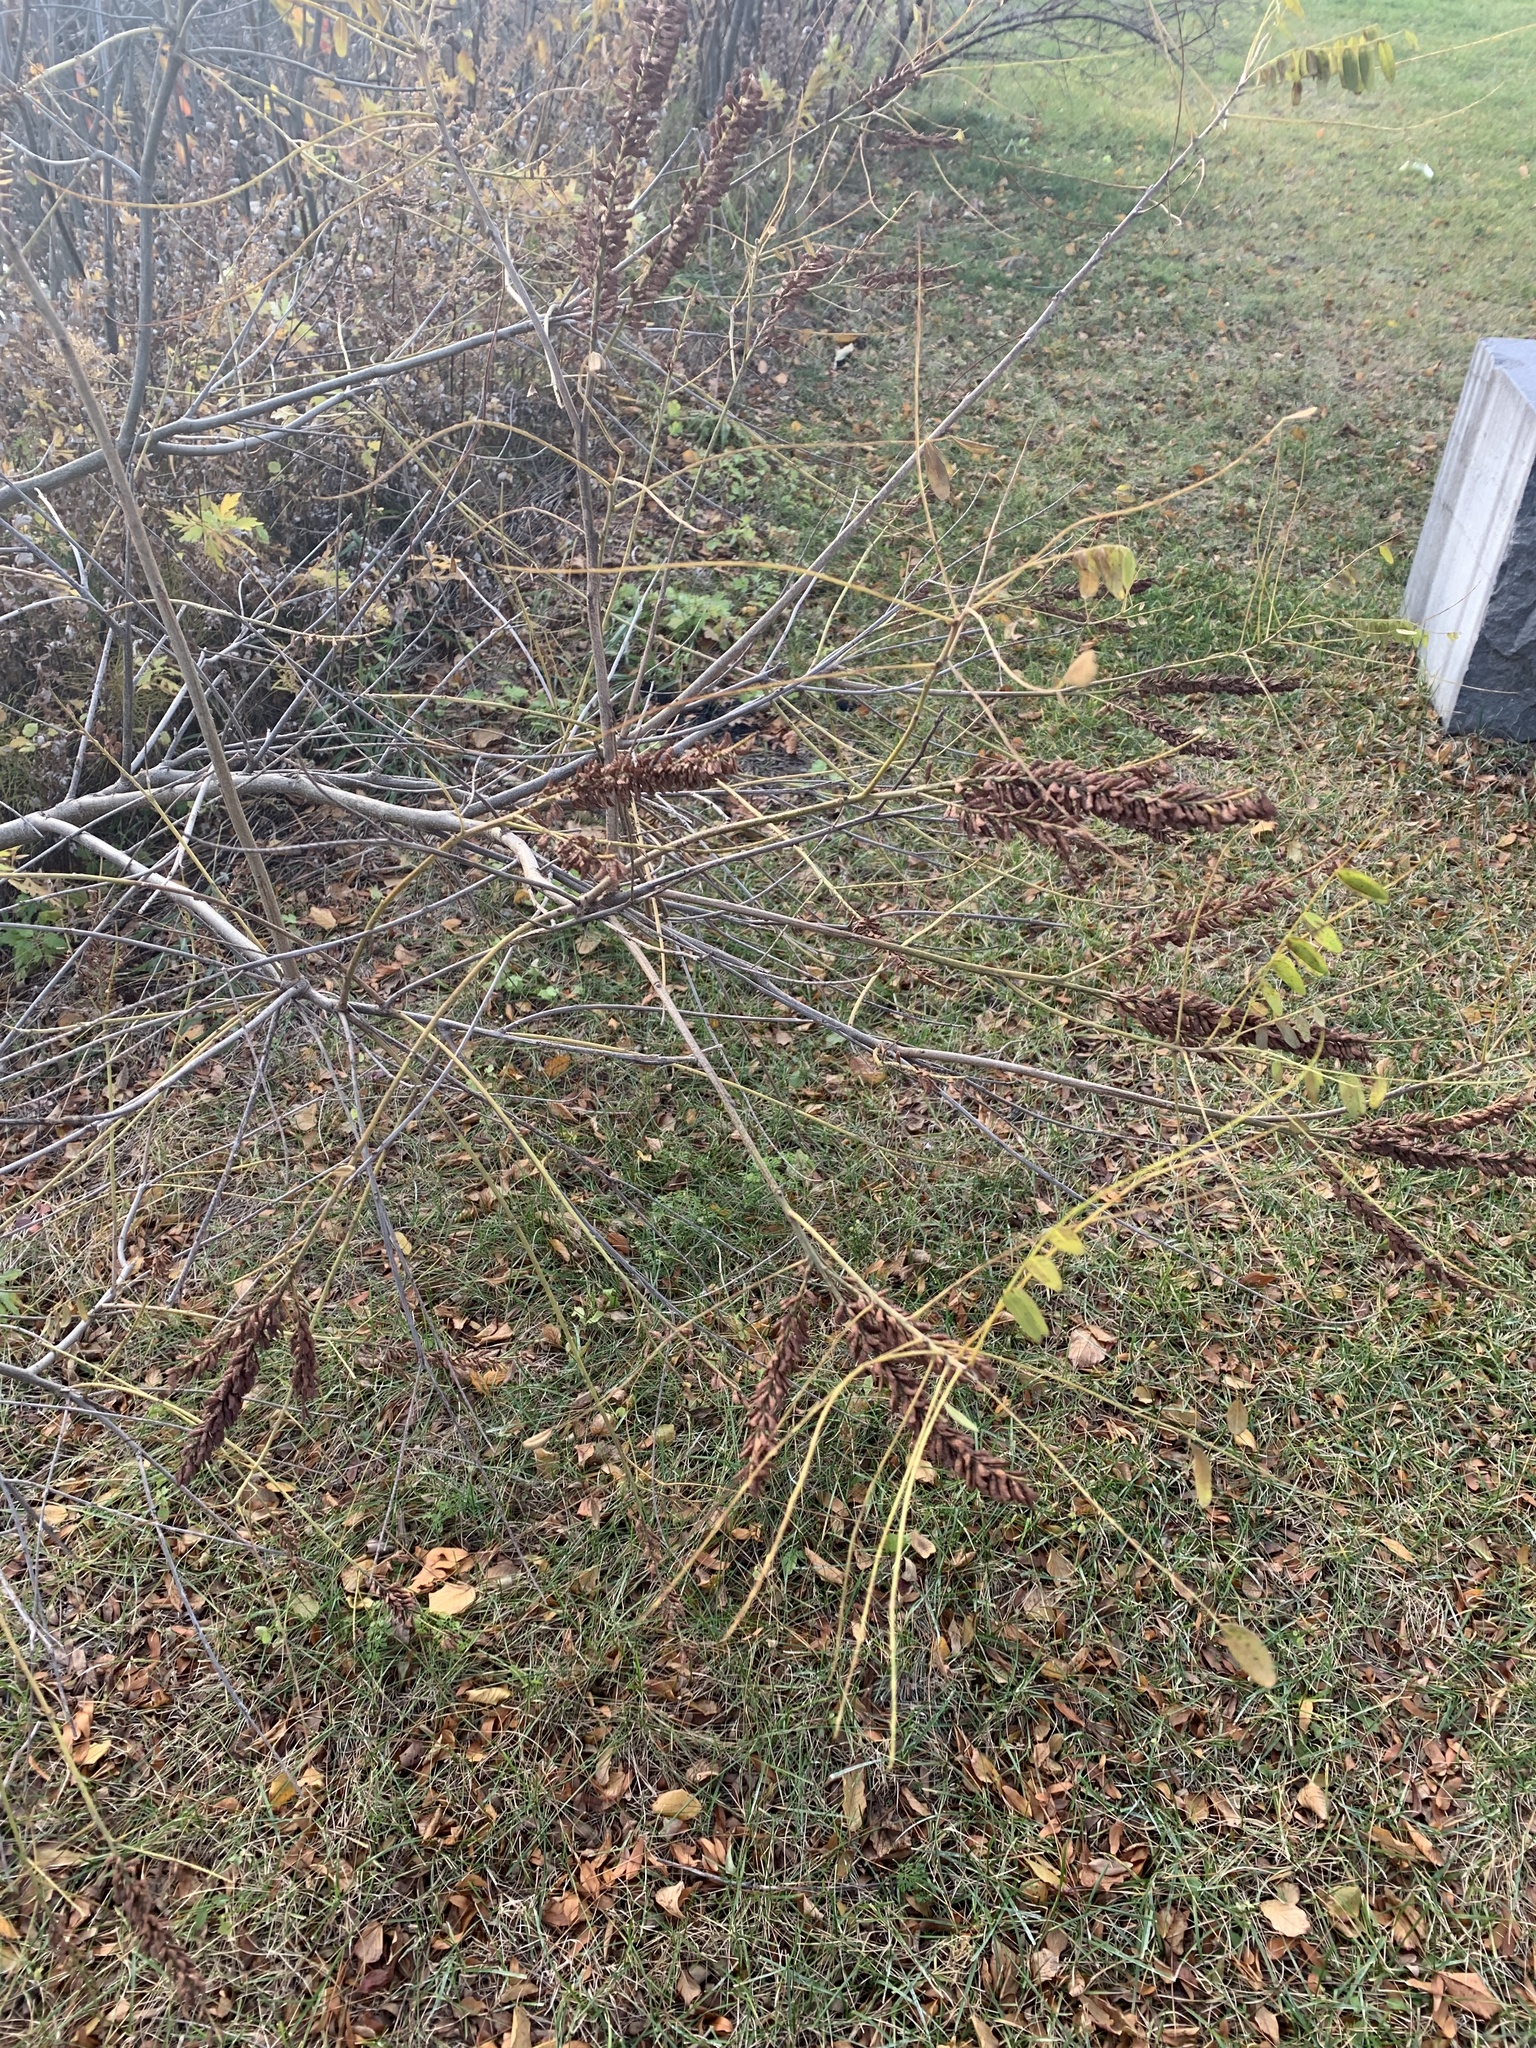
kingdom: Plantae
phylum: Tracheophyta
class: Magnoliopsida
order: Fabales
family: Fabaceae
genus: Amorpha
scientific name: Amorpha fruticosa
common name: False indigo
